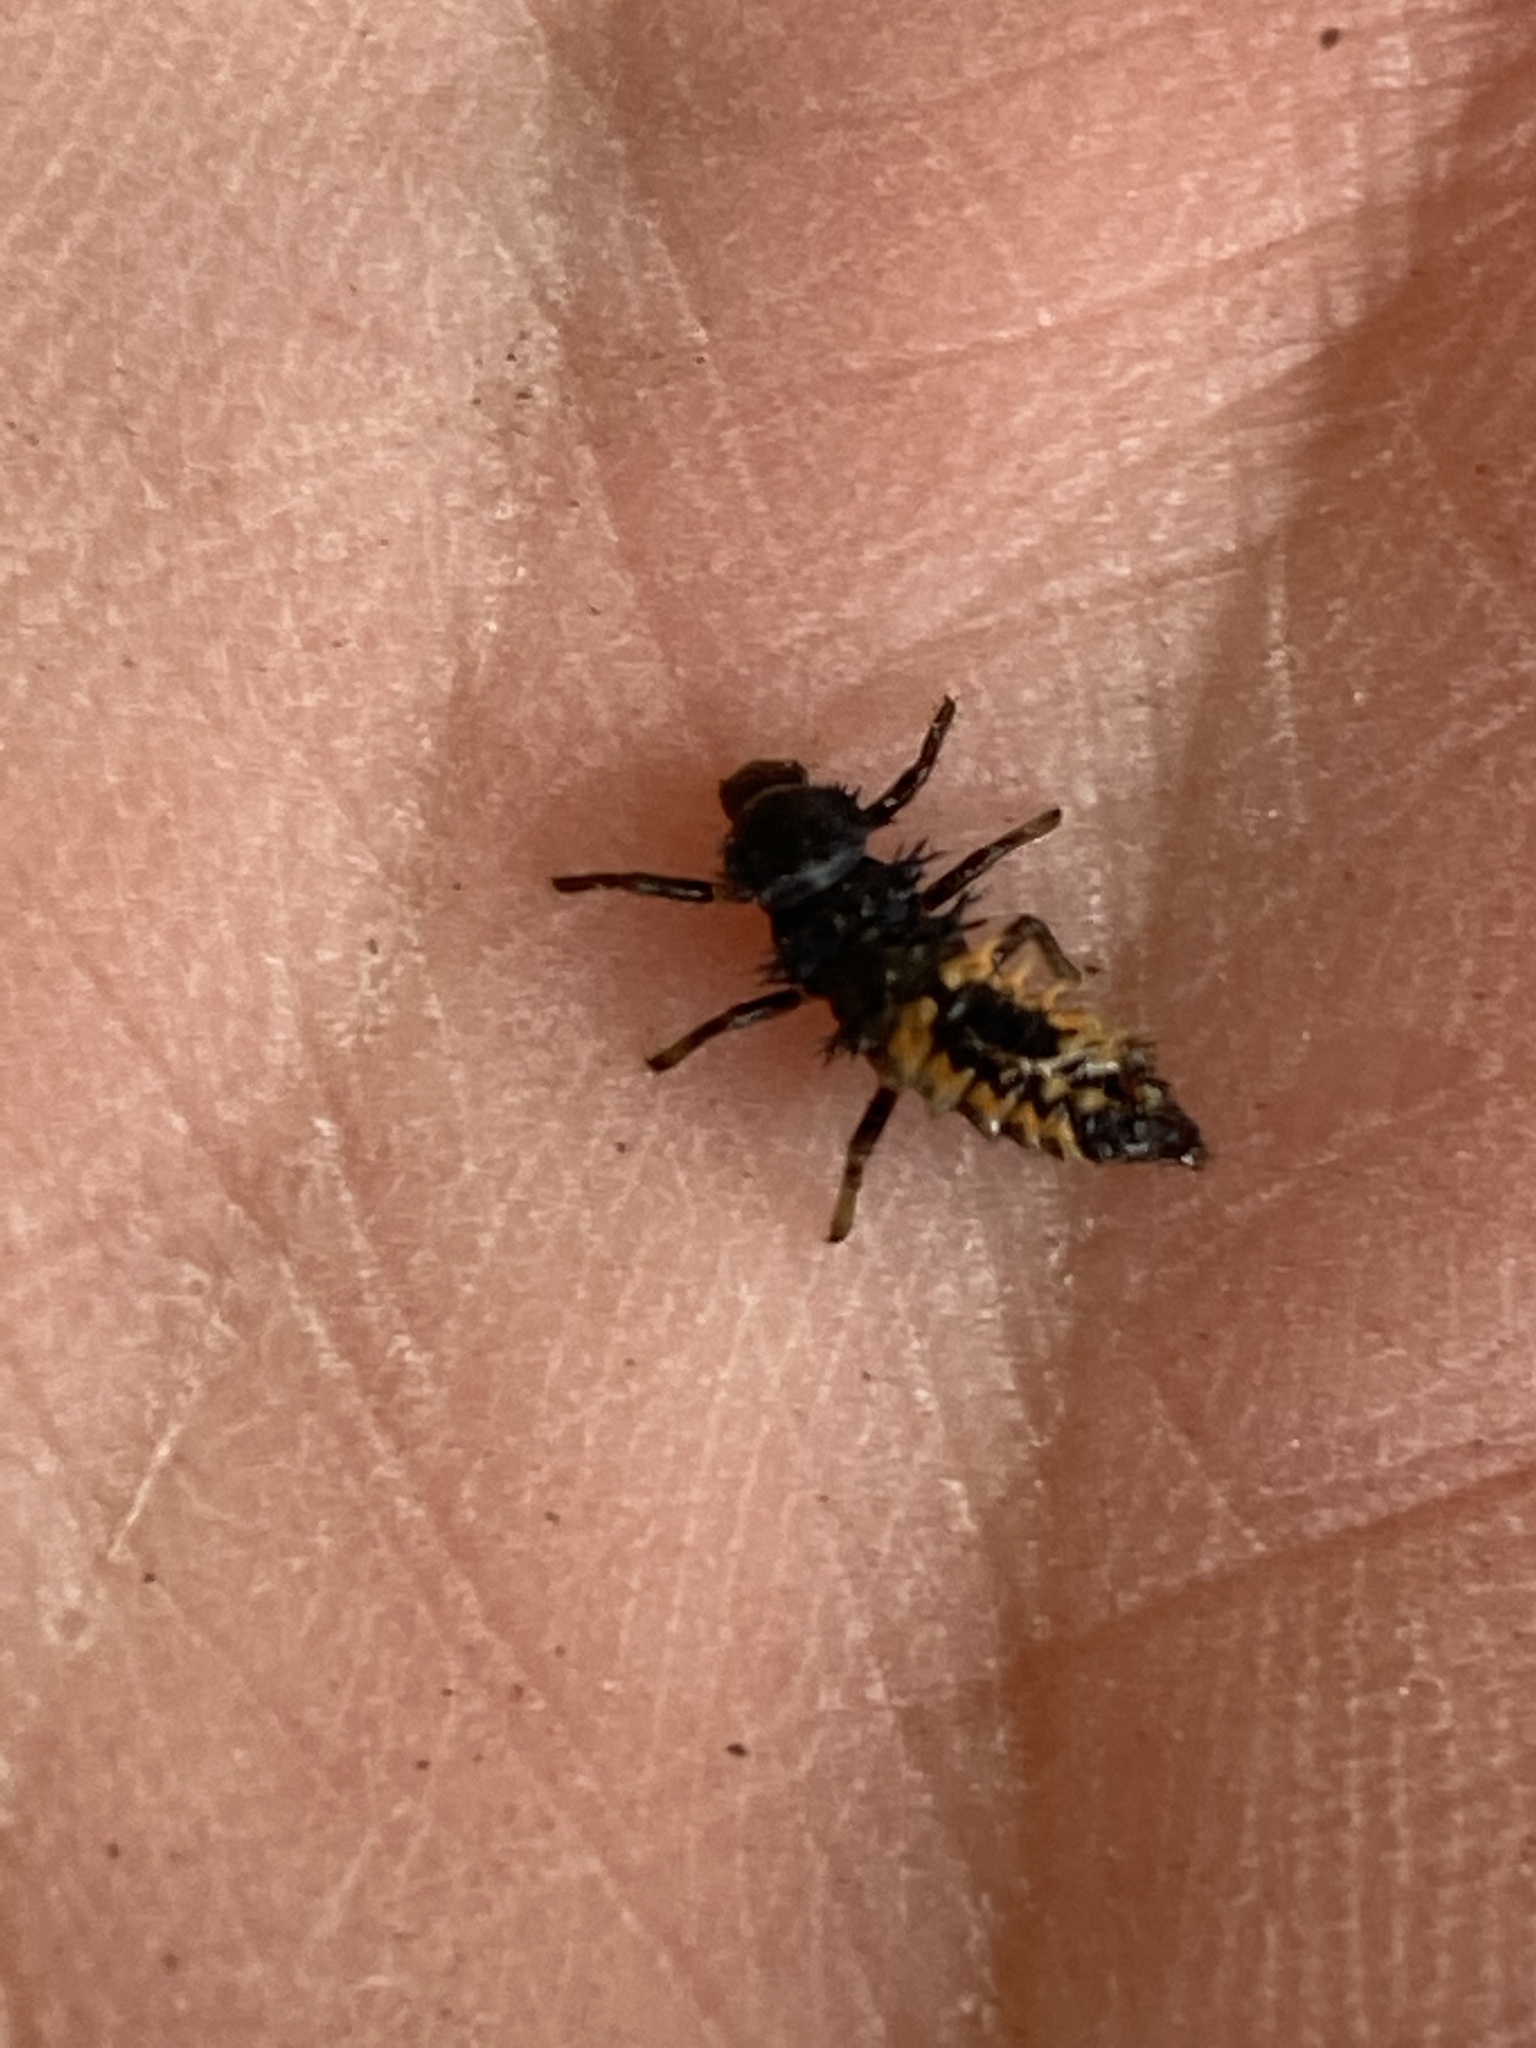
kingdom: Animalia
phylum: Arthropoda
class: Insecta
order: Coleoptera
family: Coccinellidae
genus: Harmonia
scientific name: Harmonia axyridis
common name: Harlequin ladybird
